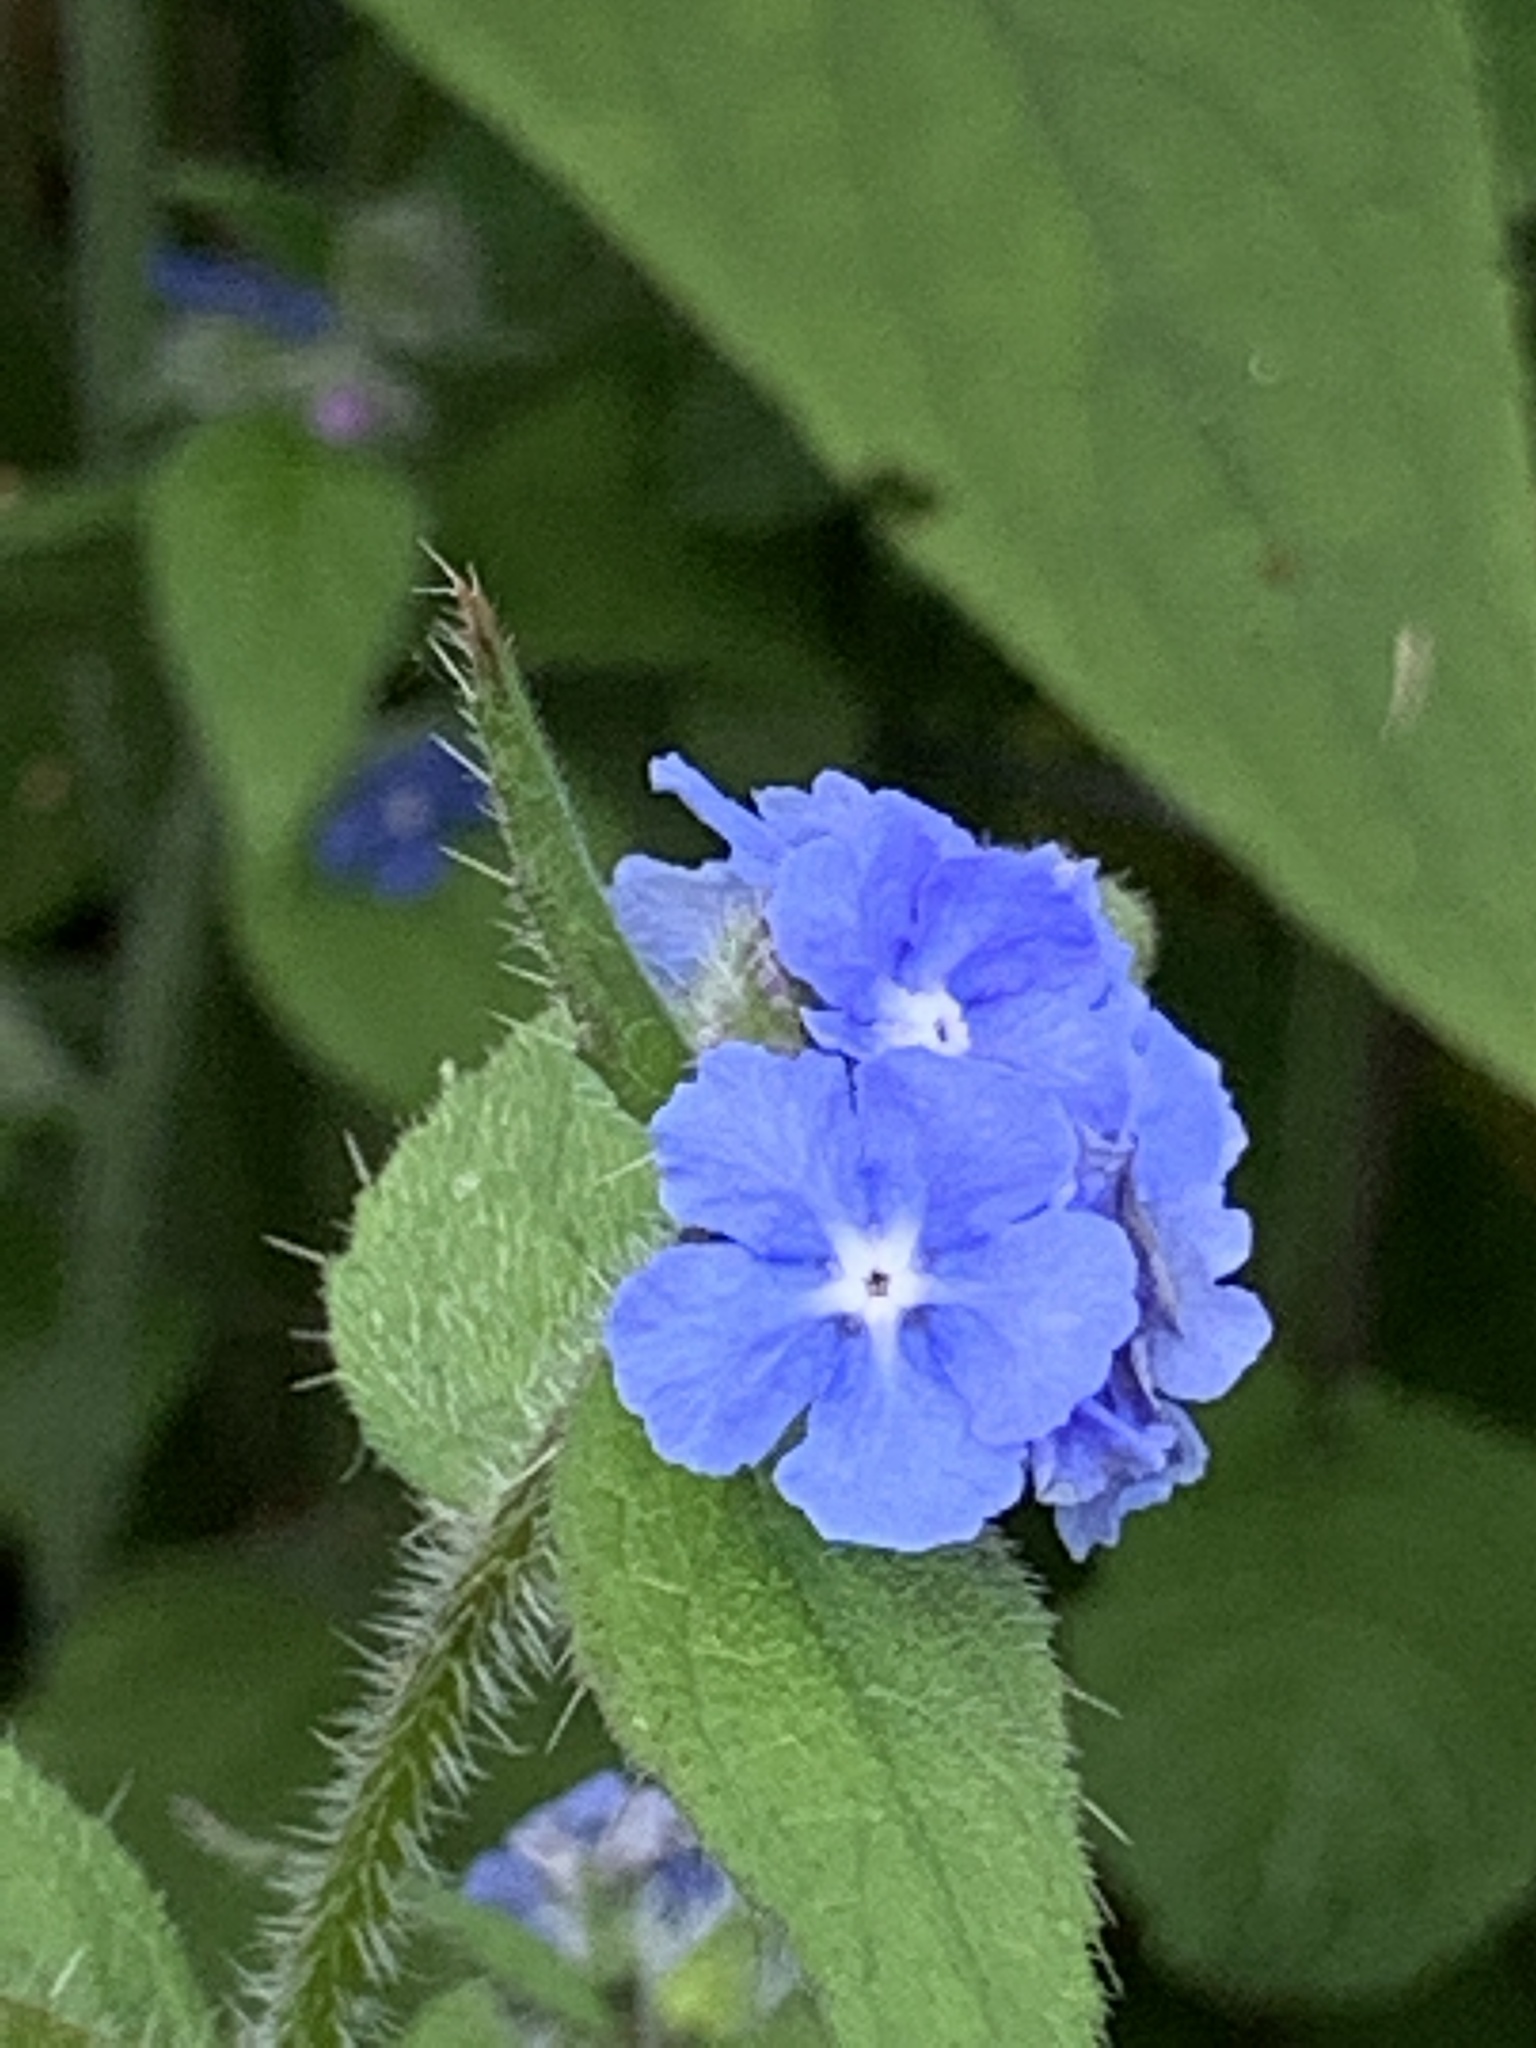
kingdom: Plantae
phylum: Tracheophyta
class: Magnoliopsida
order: Boraginales
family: Boraginaceae
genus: Pentaglottis
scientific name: Pentaglottis sempervirens
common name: Green alkanet
